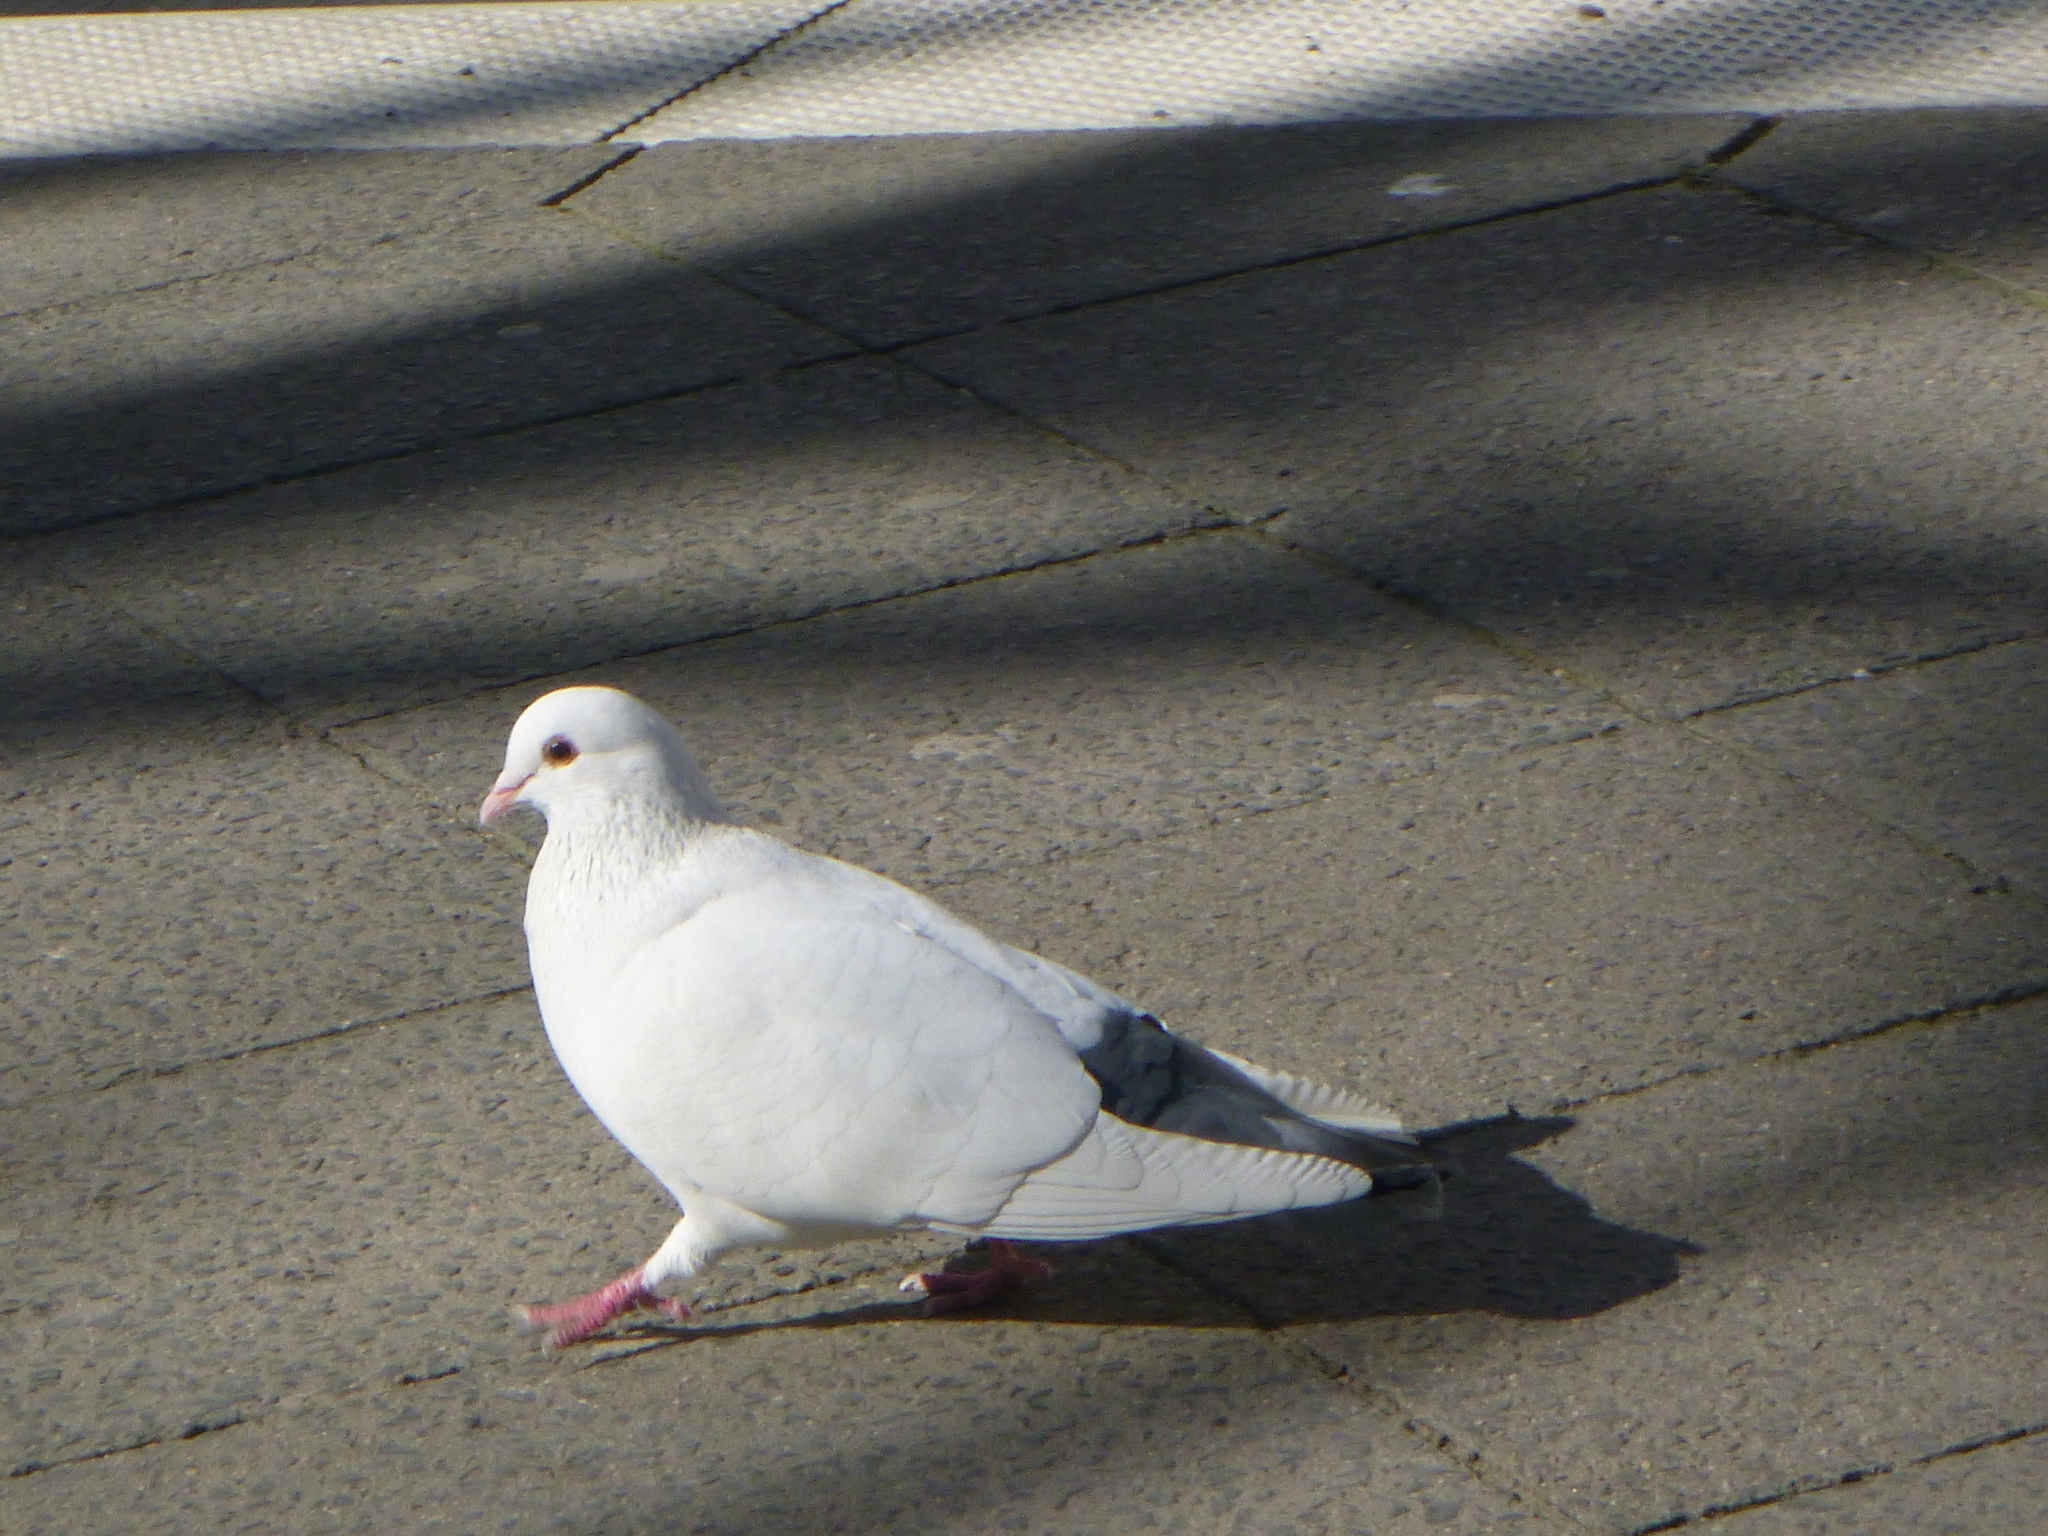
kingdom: Animalia
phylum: Chordata
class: Aves
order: Columbiformes
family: Columbidae
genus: Columba
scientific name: Columba livia
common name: Rock pigeon
